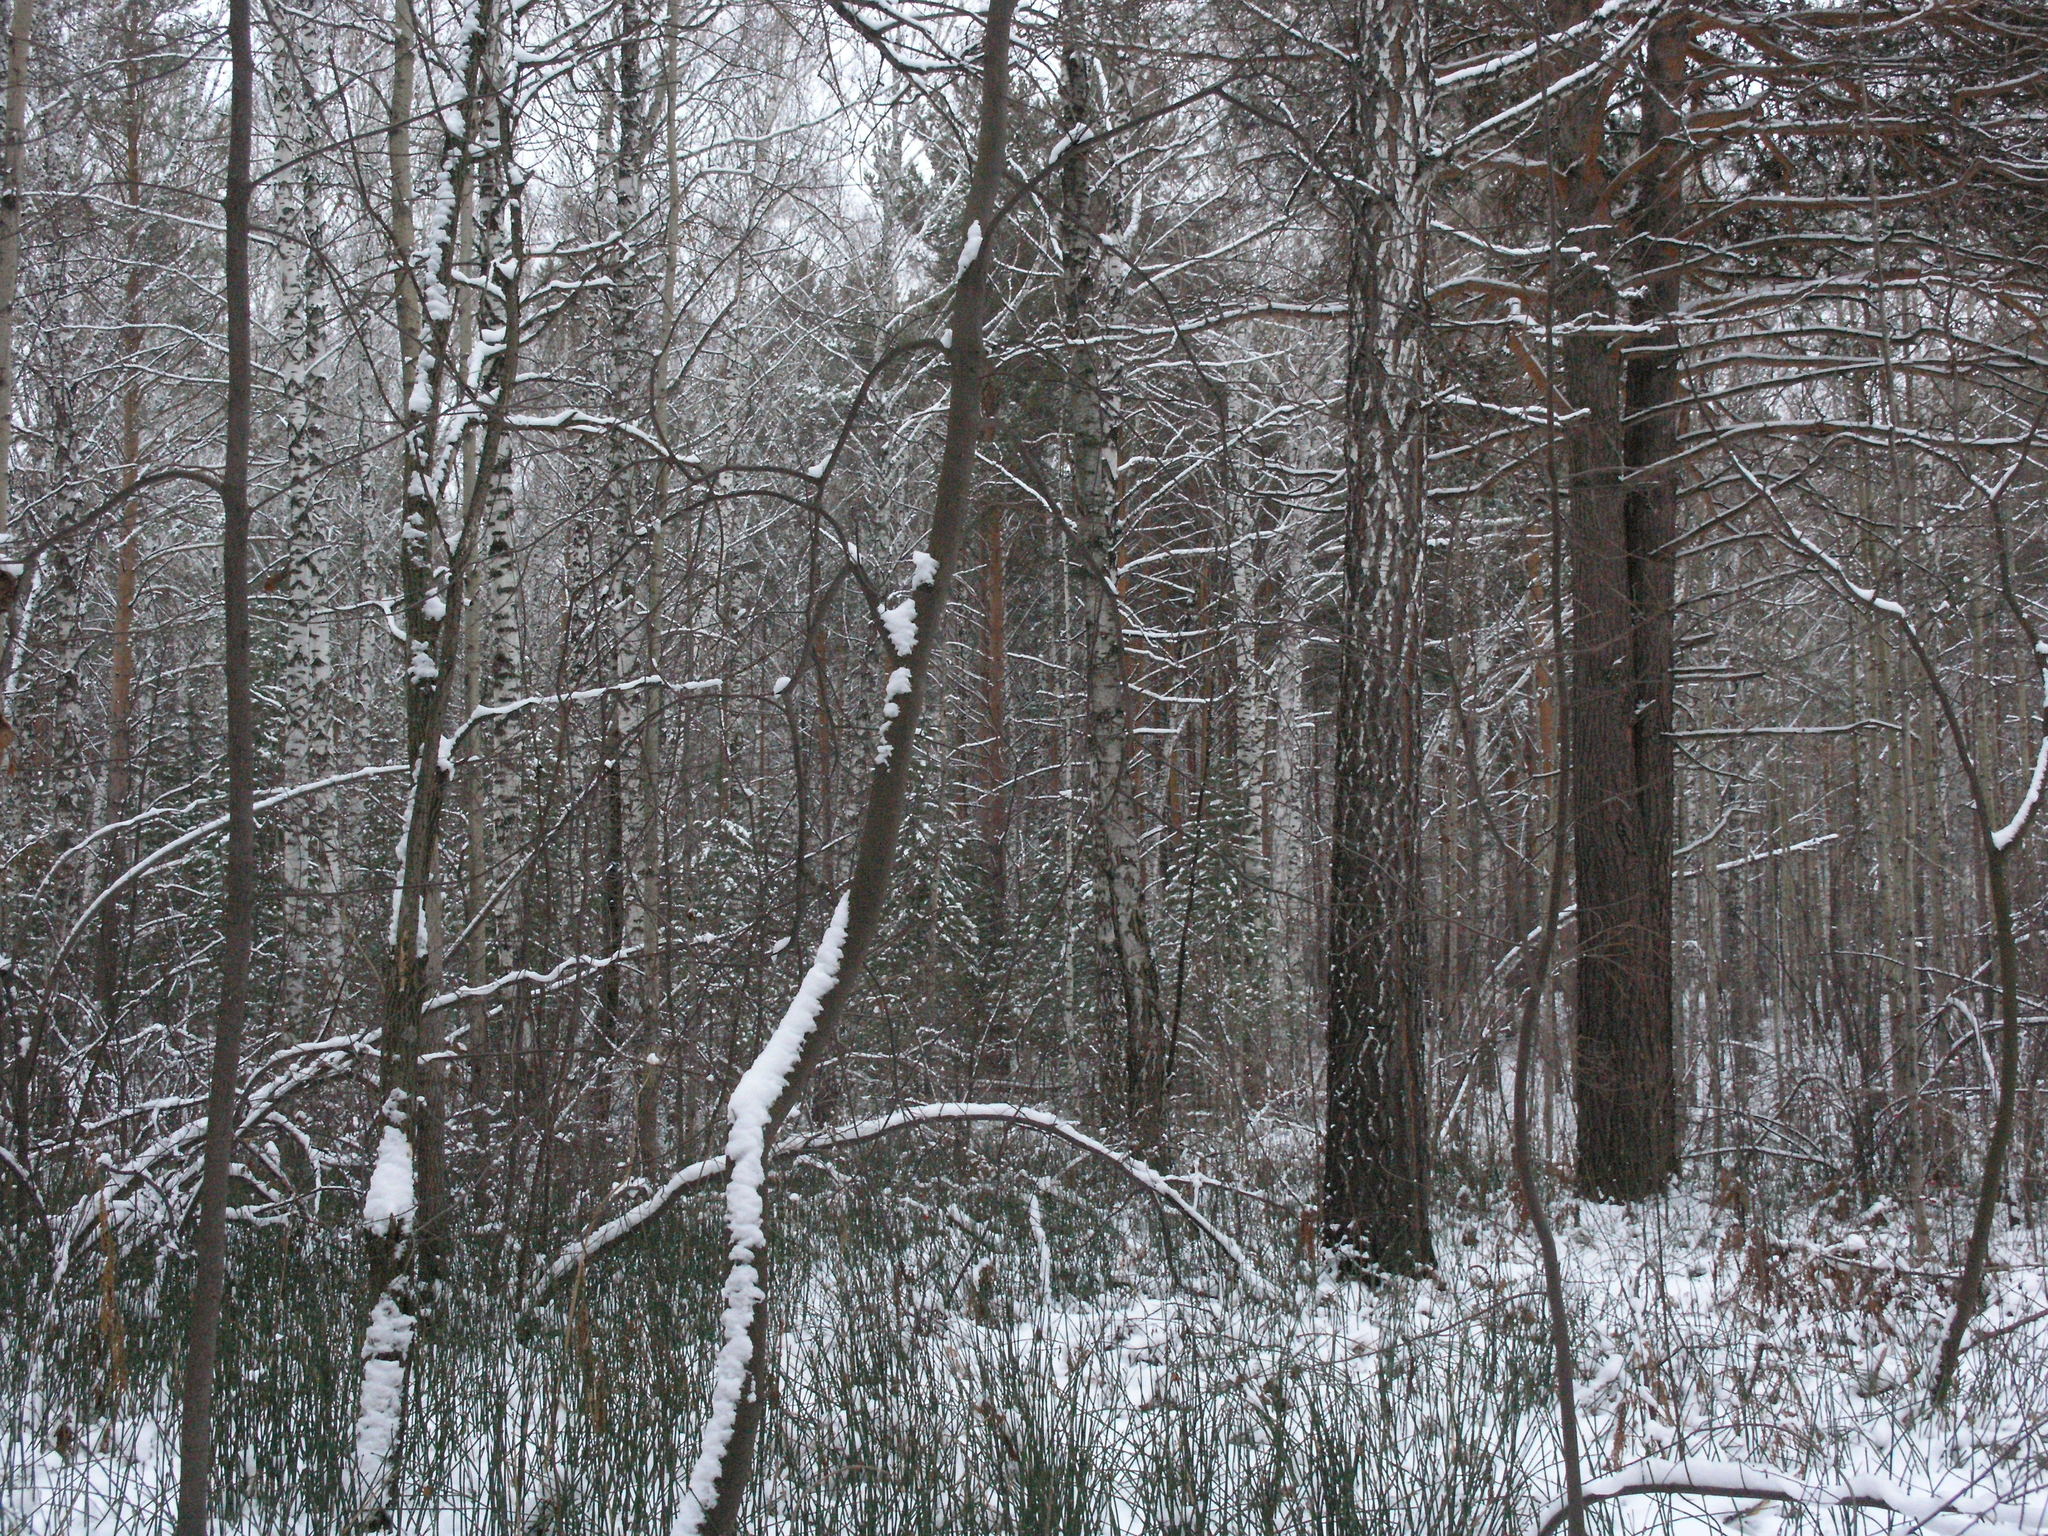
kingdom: Plantae
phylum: Tracheophyta
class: Pinopsida
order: Pinales
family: Pinaceae
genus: Pinus
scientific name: Pinus sylvestris
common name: Scots pine
